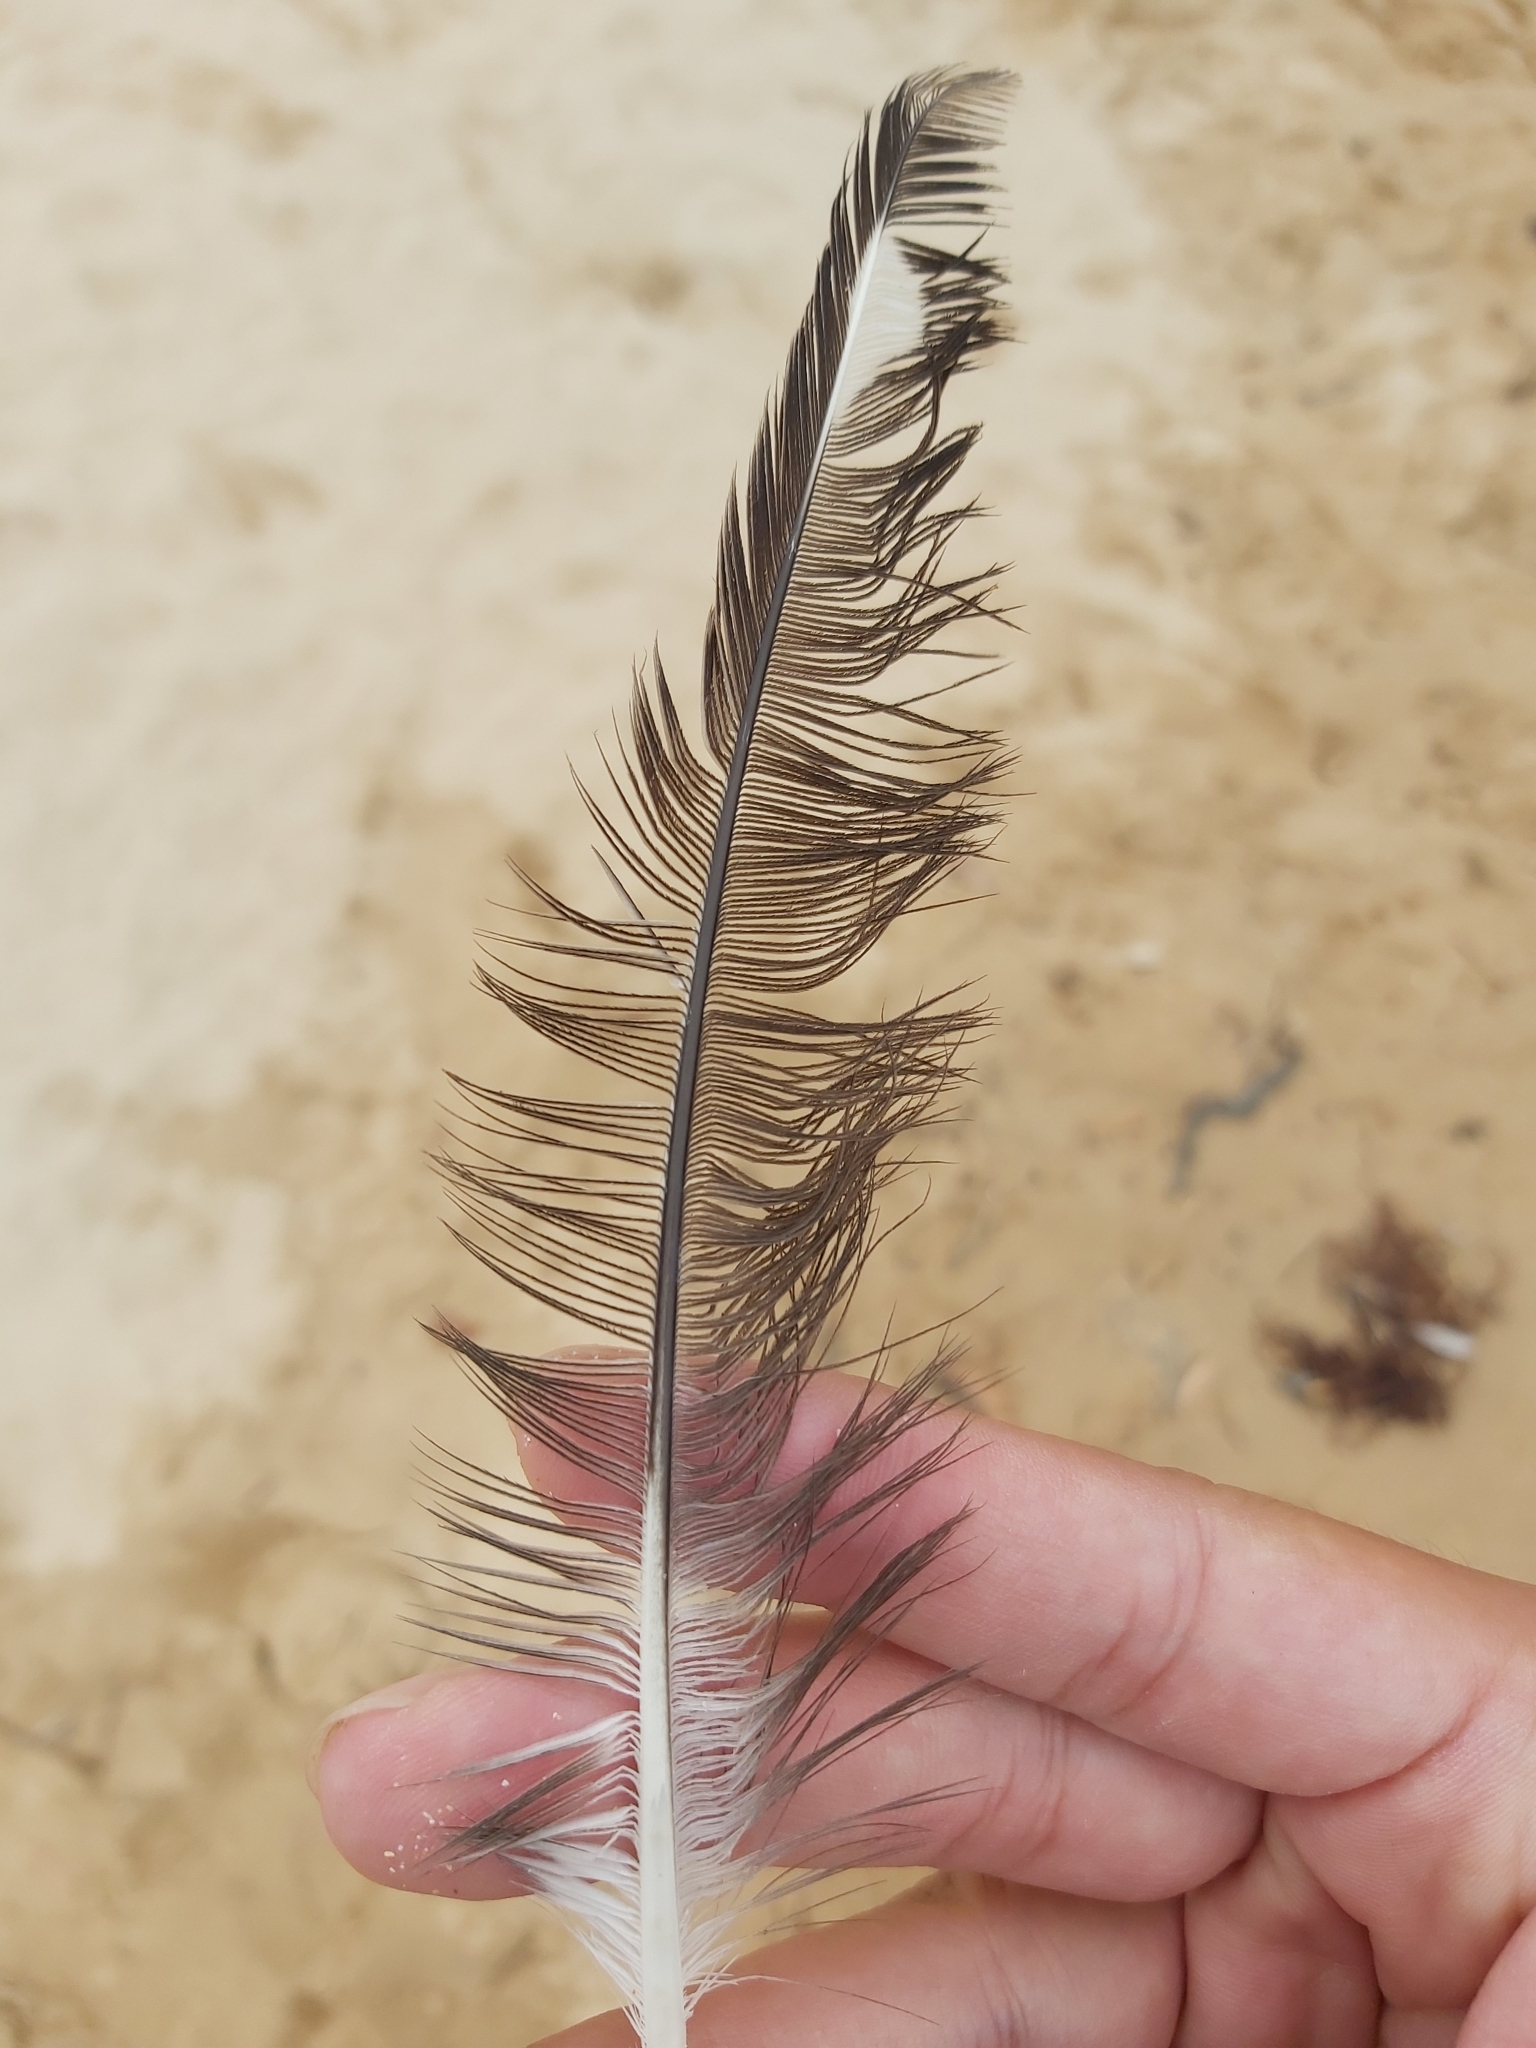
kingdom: Animalia
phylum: Chordata
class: Aves
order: Charadriiformes
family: Laridae
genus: Chroicocephalus
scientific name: Chroicocephalus novaehollandiae
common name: Silver gull
